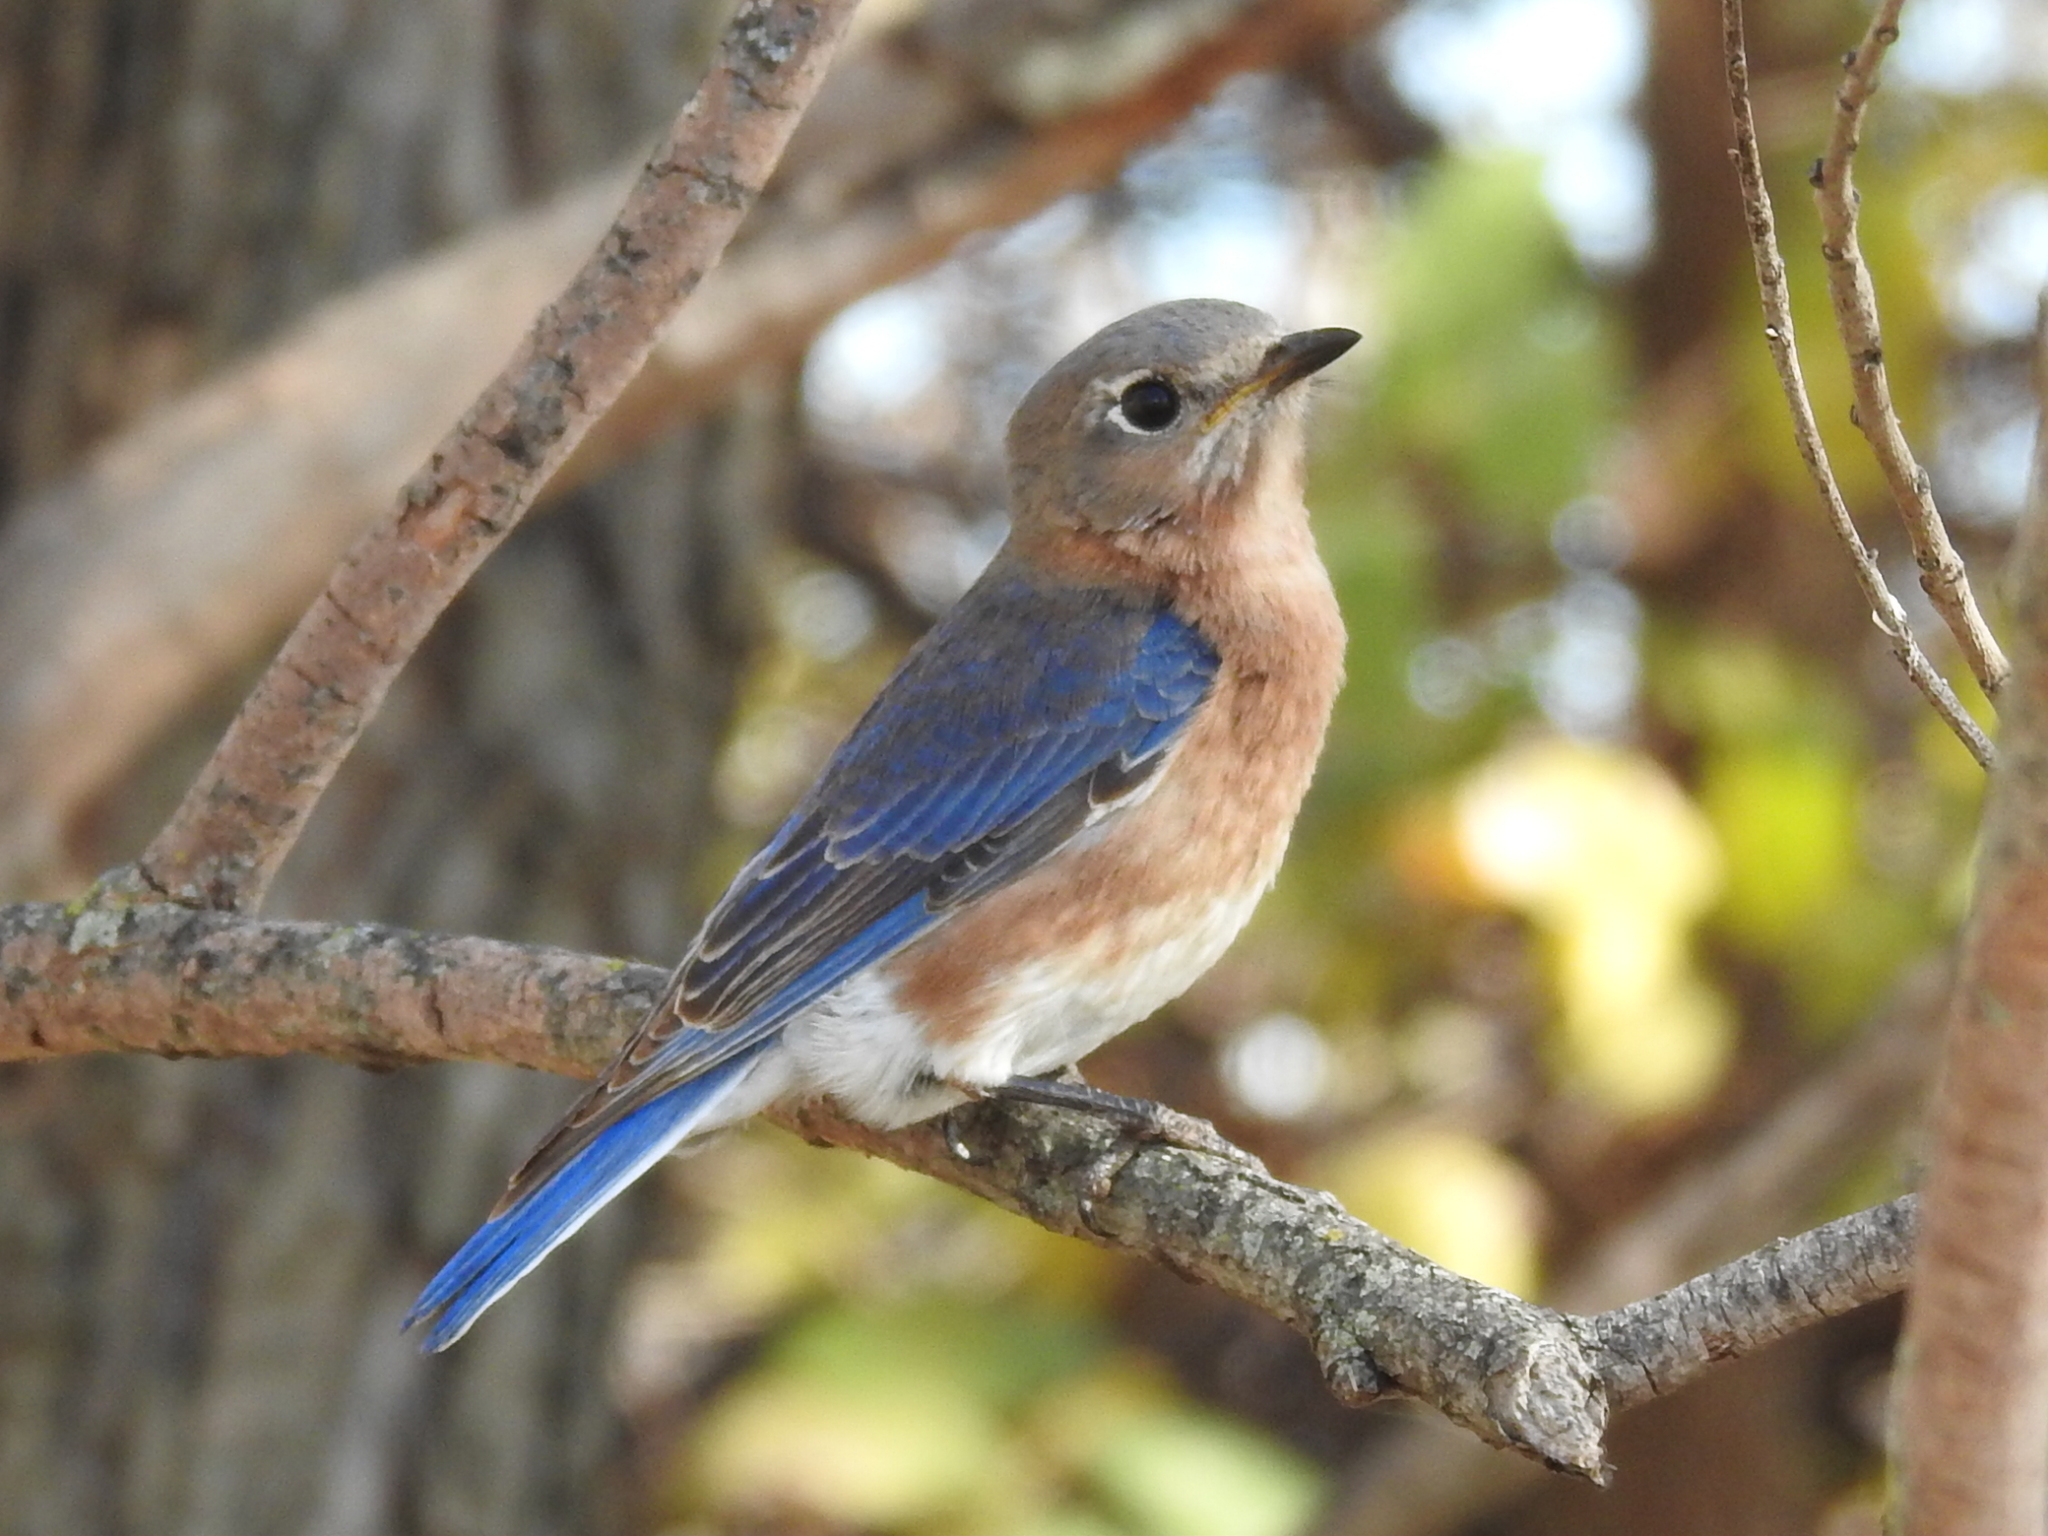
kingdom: Animalia
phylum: Chordata
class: Aves
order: Passeriformes
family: Turdidae
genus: Sialia
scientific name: Sialia sialis
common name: Eastern bluebird
